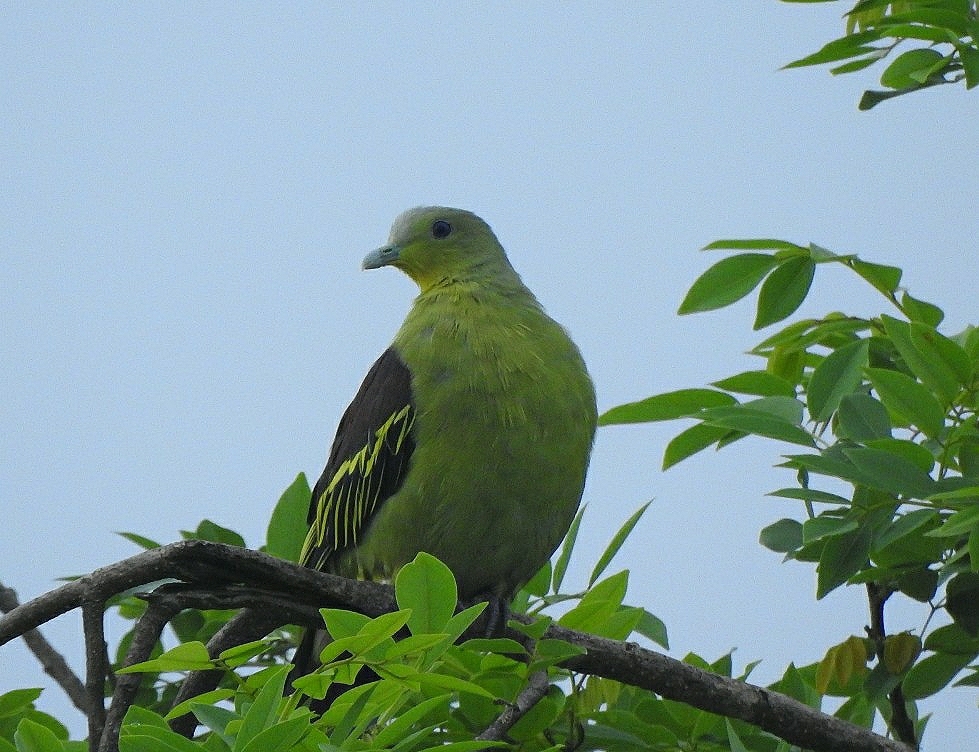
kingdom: Animalia
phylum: Chordata
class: Aves
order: Columbiformes
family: Columbidae
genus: Treron
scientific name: Treron affinis
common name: Grey-fronted green pigeon
